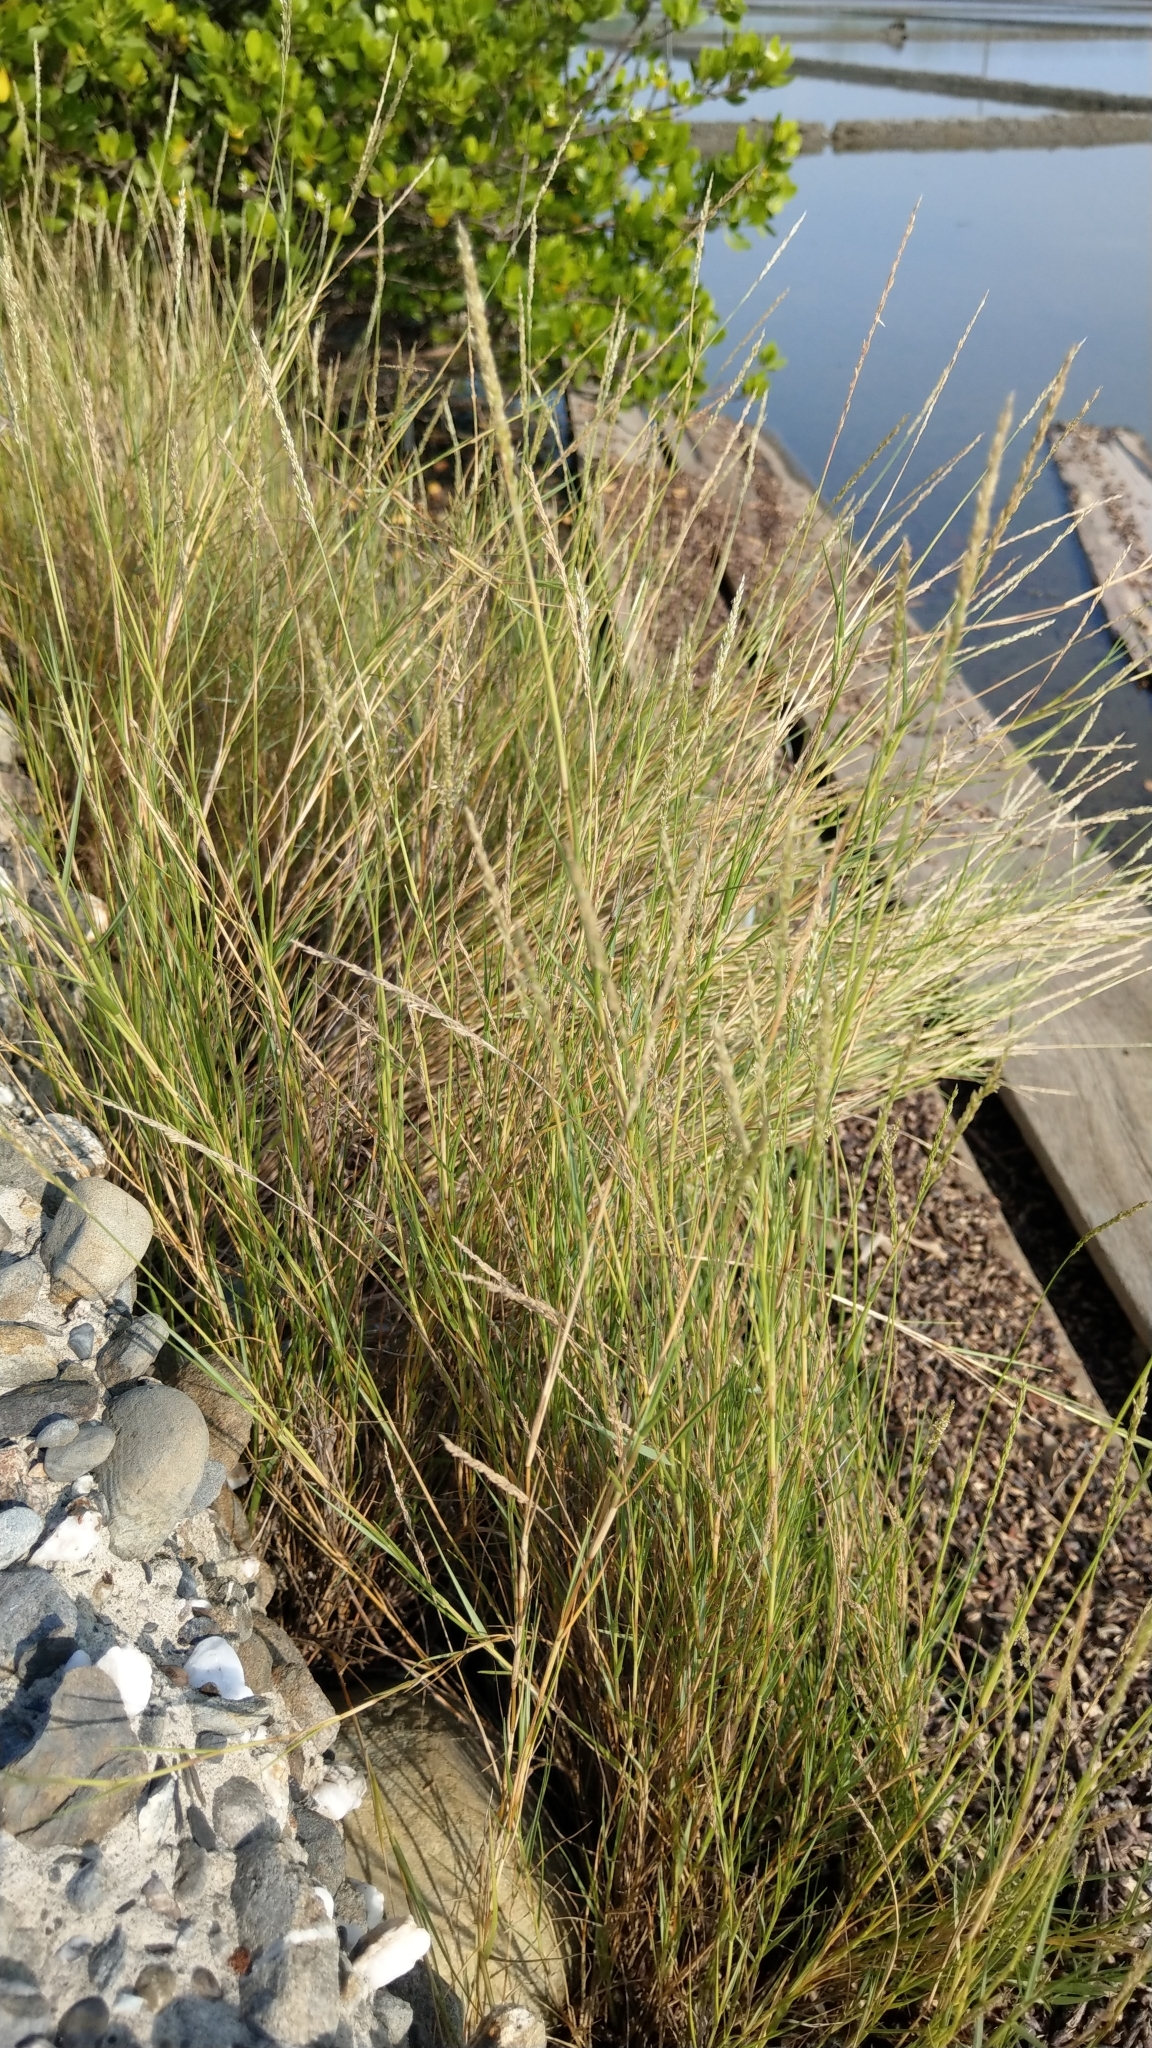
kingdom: Plantae
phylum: Tracheophyta
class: Liliopsida
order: Poales
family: Poaceae
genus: Sporobolus
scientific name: Sporobolus virginicus
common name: Beach dropseed
